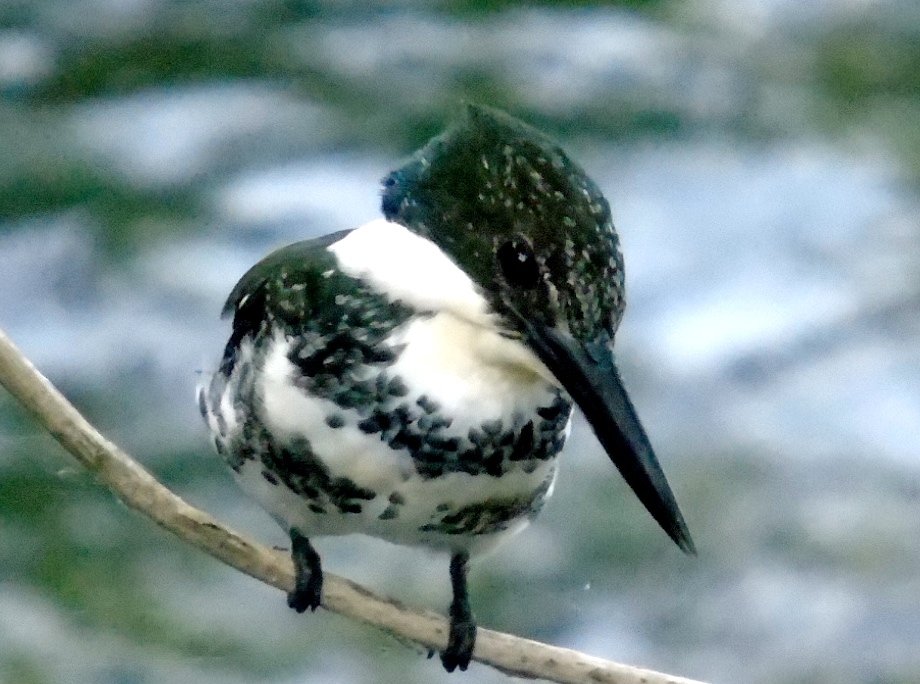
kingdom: Animalia
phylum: Chordata
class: Aves
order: Coraciiformes
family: Alcedinidae
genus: Chloroceryle
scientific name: Chloroceryle americana
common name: Green kingfisher
